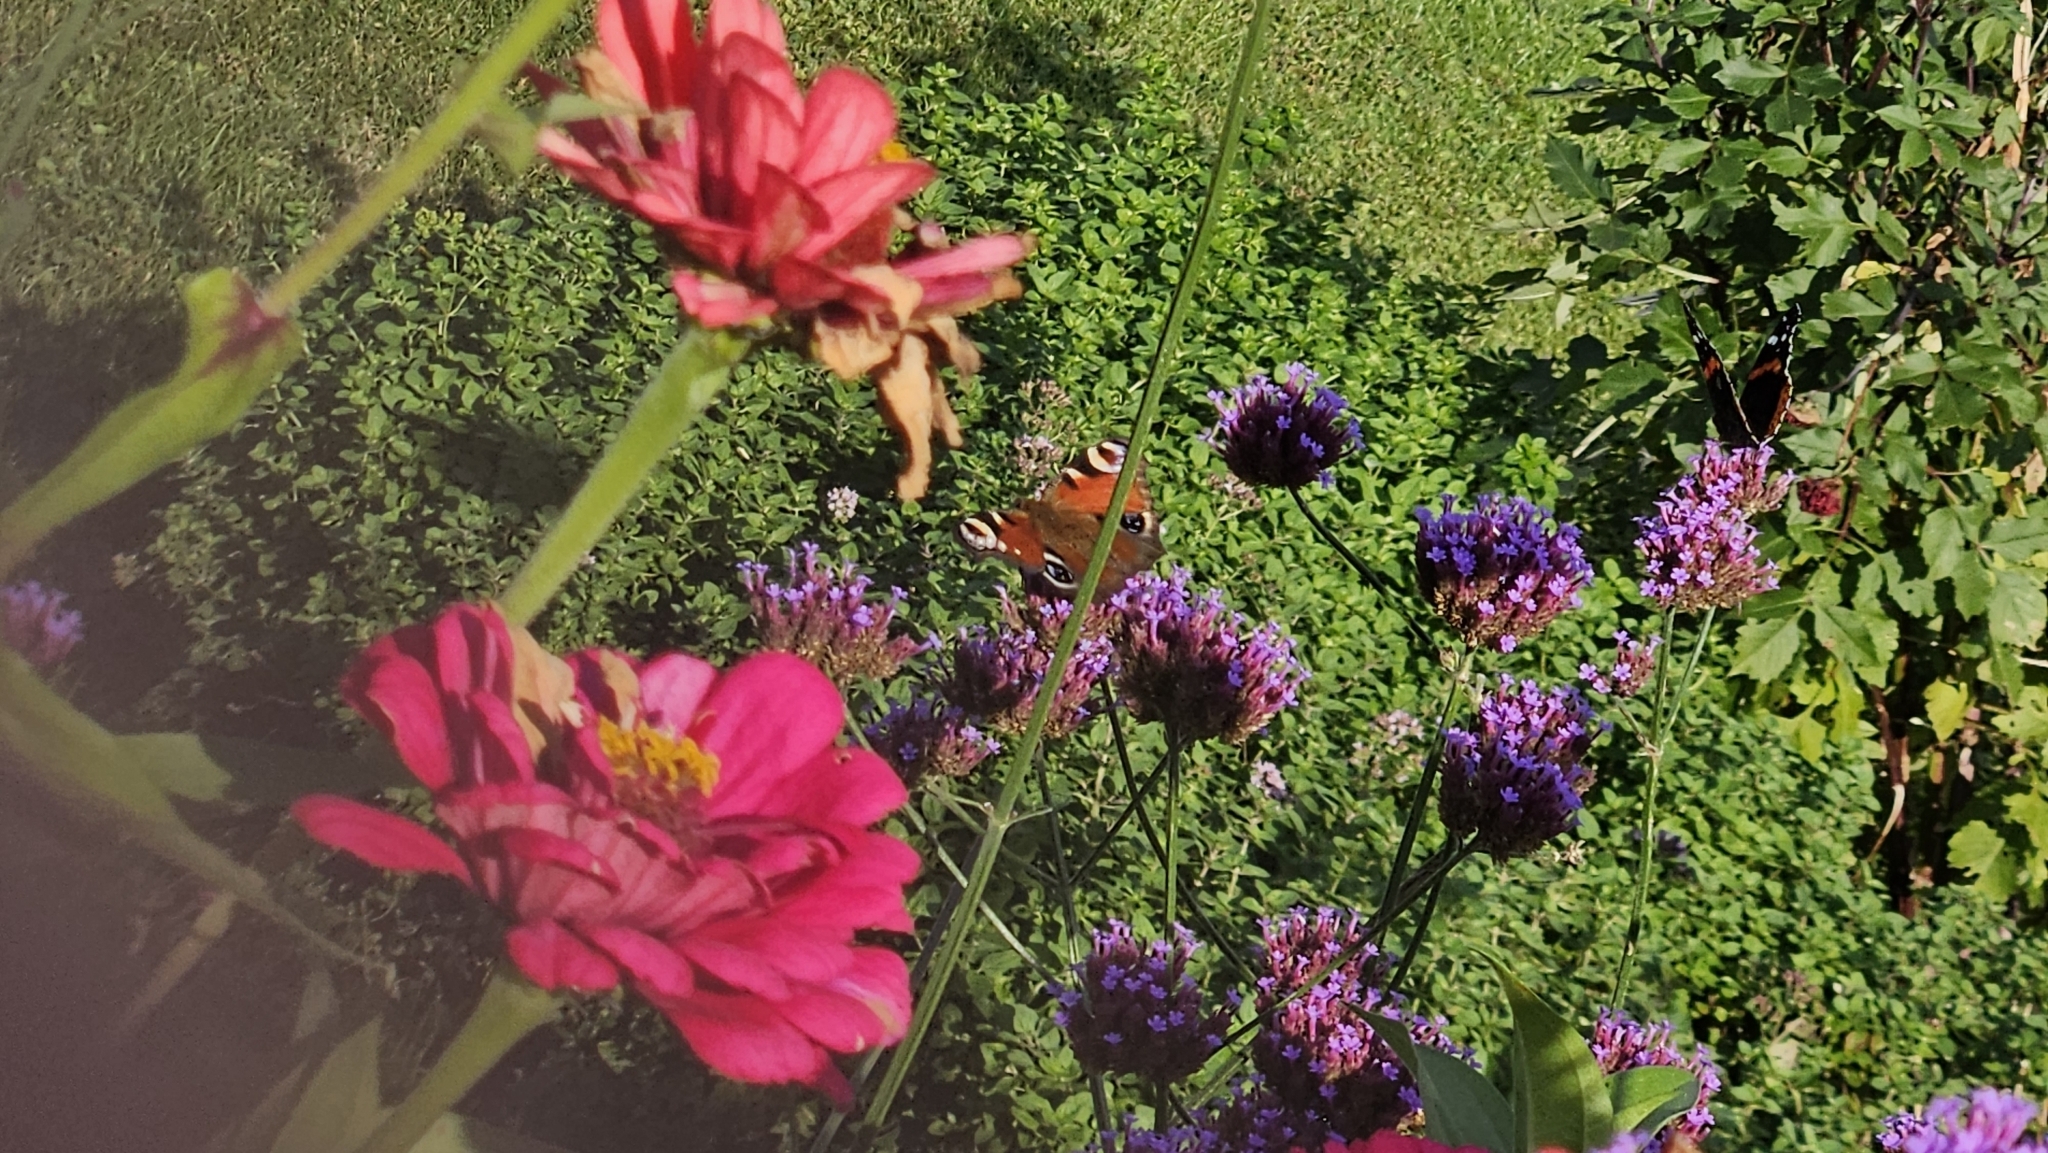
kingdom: Animalia
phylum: Arthropoda
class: Insecta
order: Lepidoptera
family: Nymphalidae
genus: Vanessa
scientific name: Vanessa atalanta
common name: Red admiral
